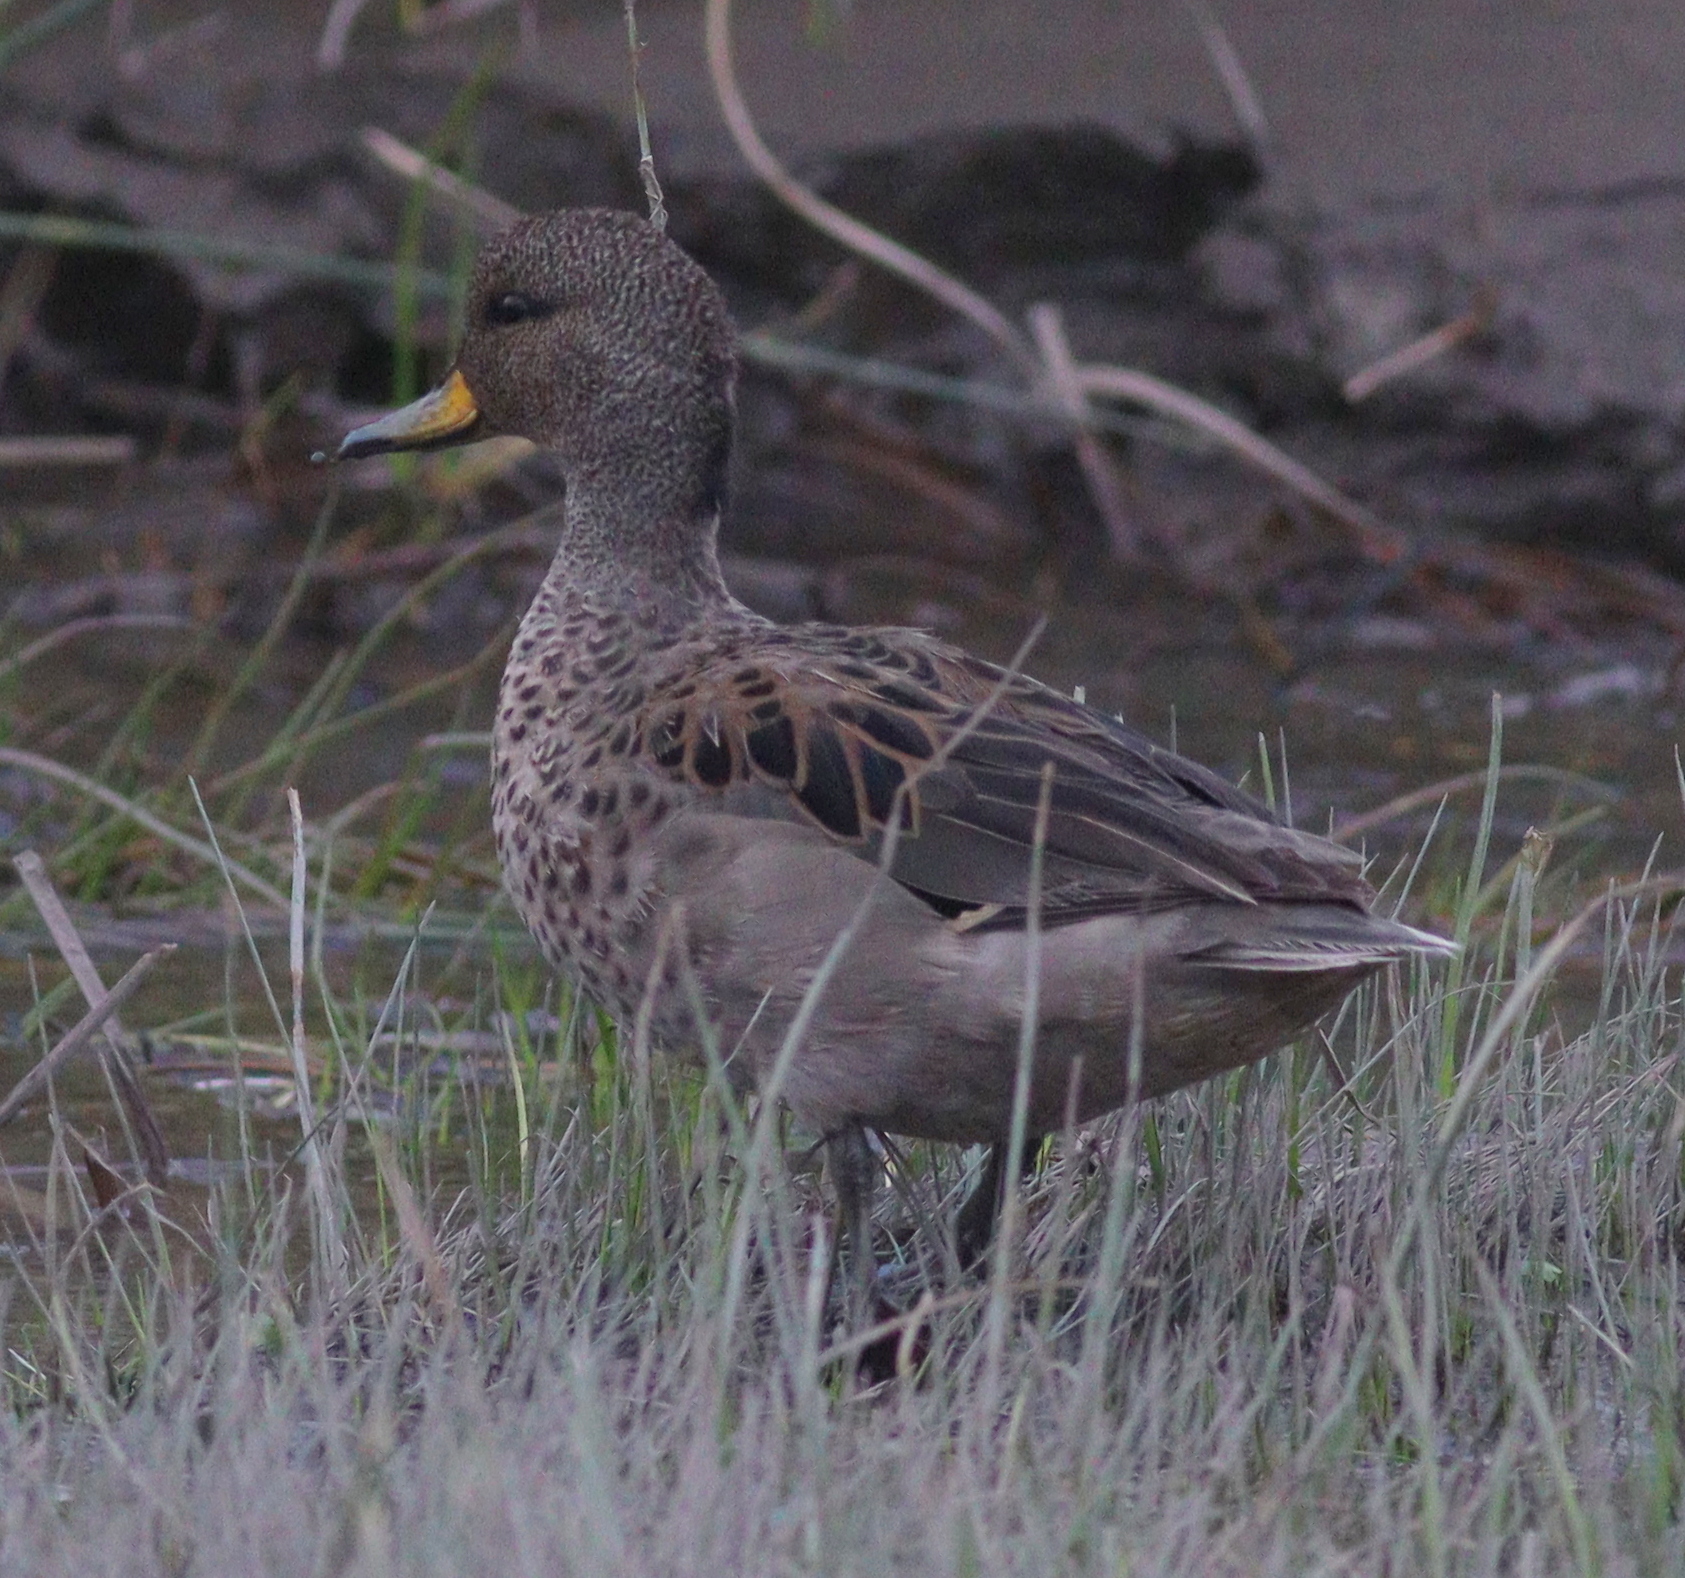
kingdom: Animalia
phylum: Chordata
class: Aves
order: Anseriformes
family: Anatidae
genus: Anas
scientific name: Anas flavirostris
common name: Yellow-billed teal
